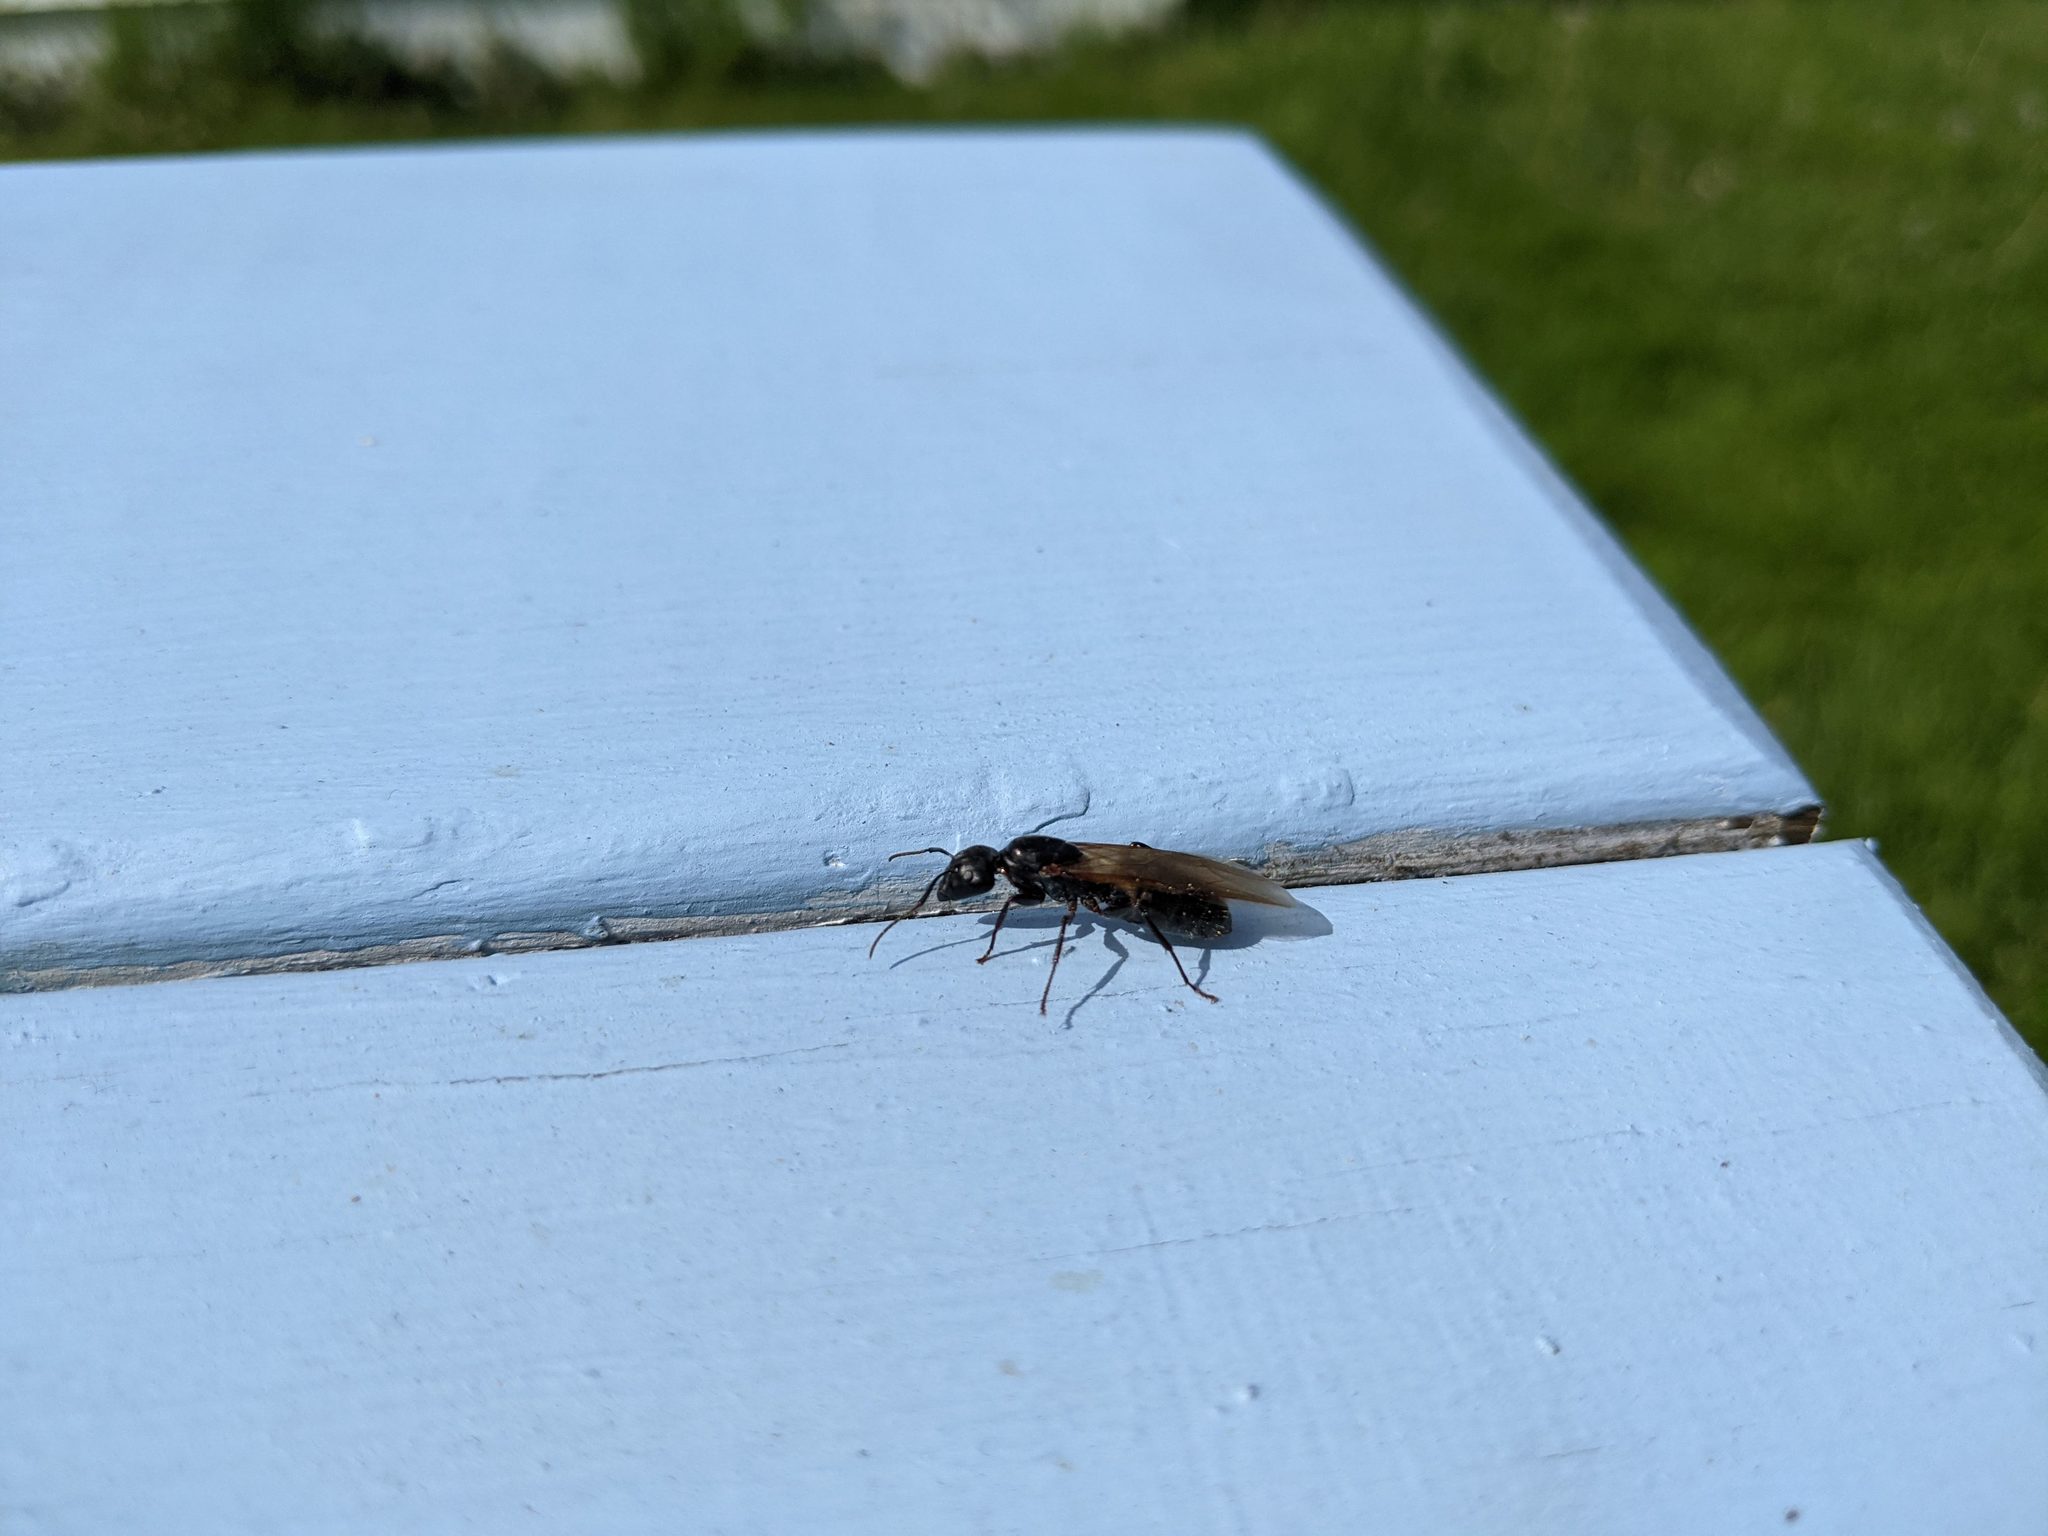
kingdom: Animalia
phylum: Arthropoda
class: Insecta
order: Hymenoptera
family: Formicidae
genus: Camponotus
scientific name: Camponotus pennsylvanicus
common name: Black carpenter ant
